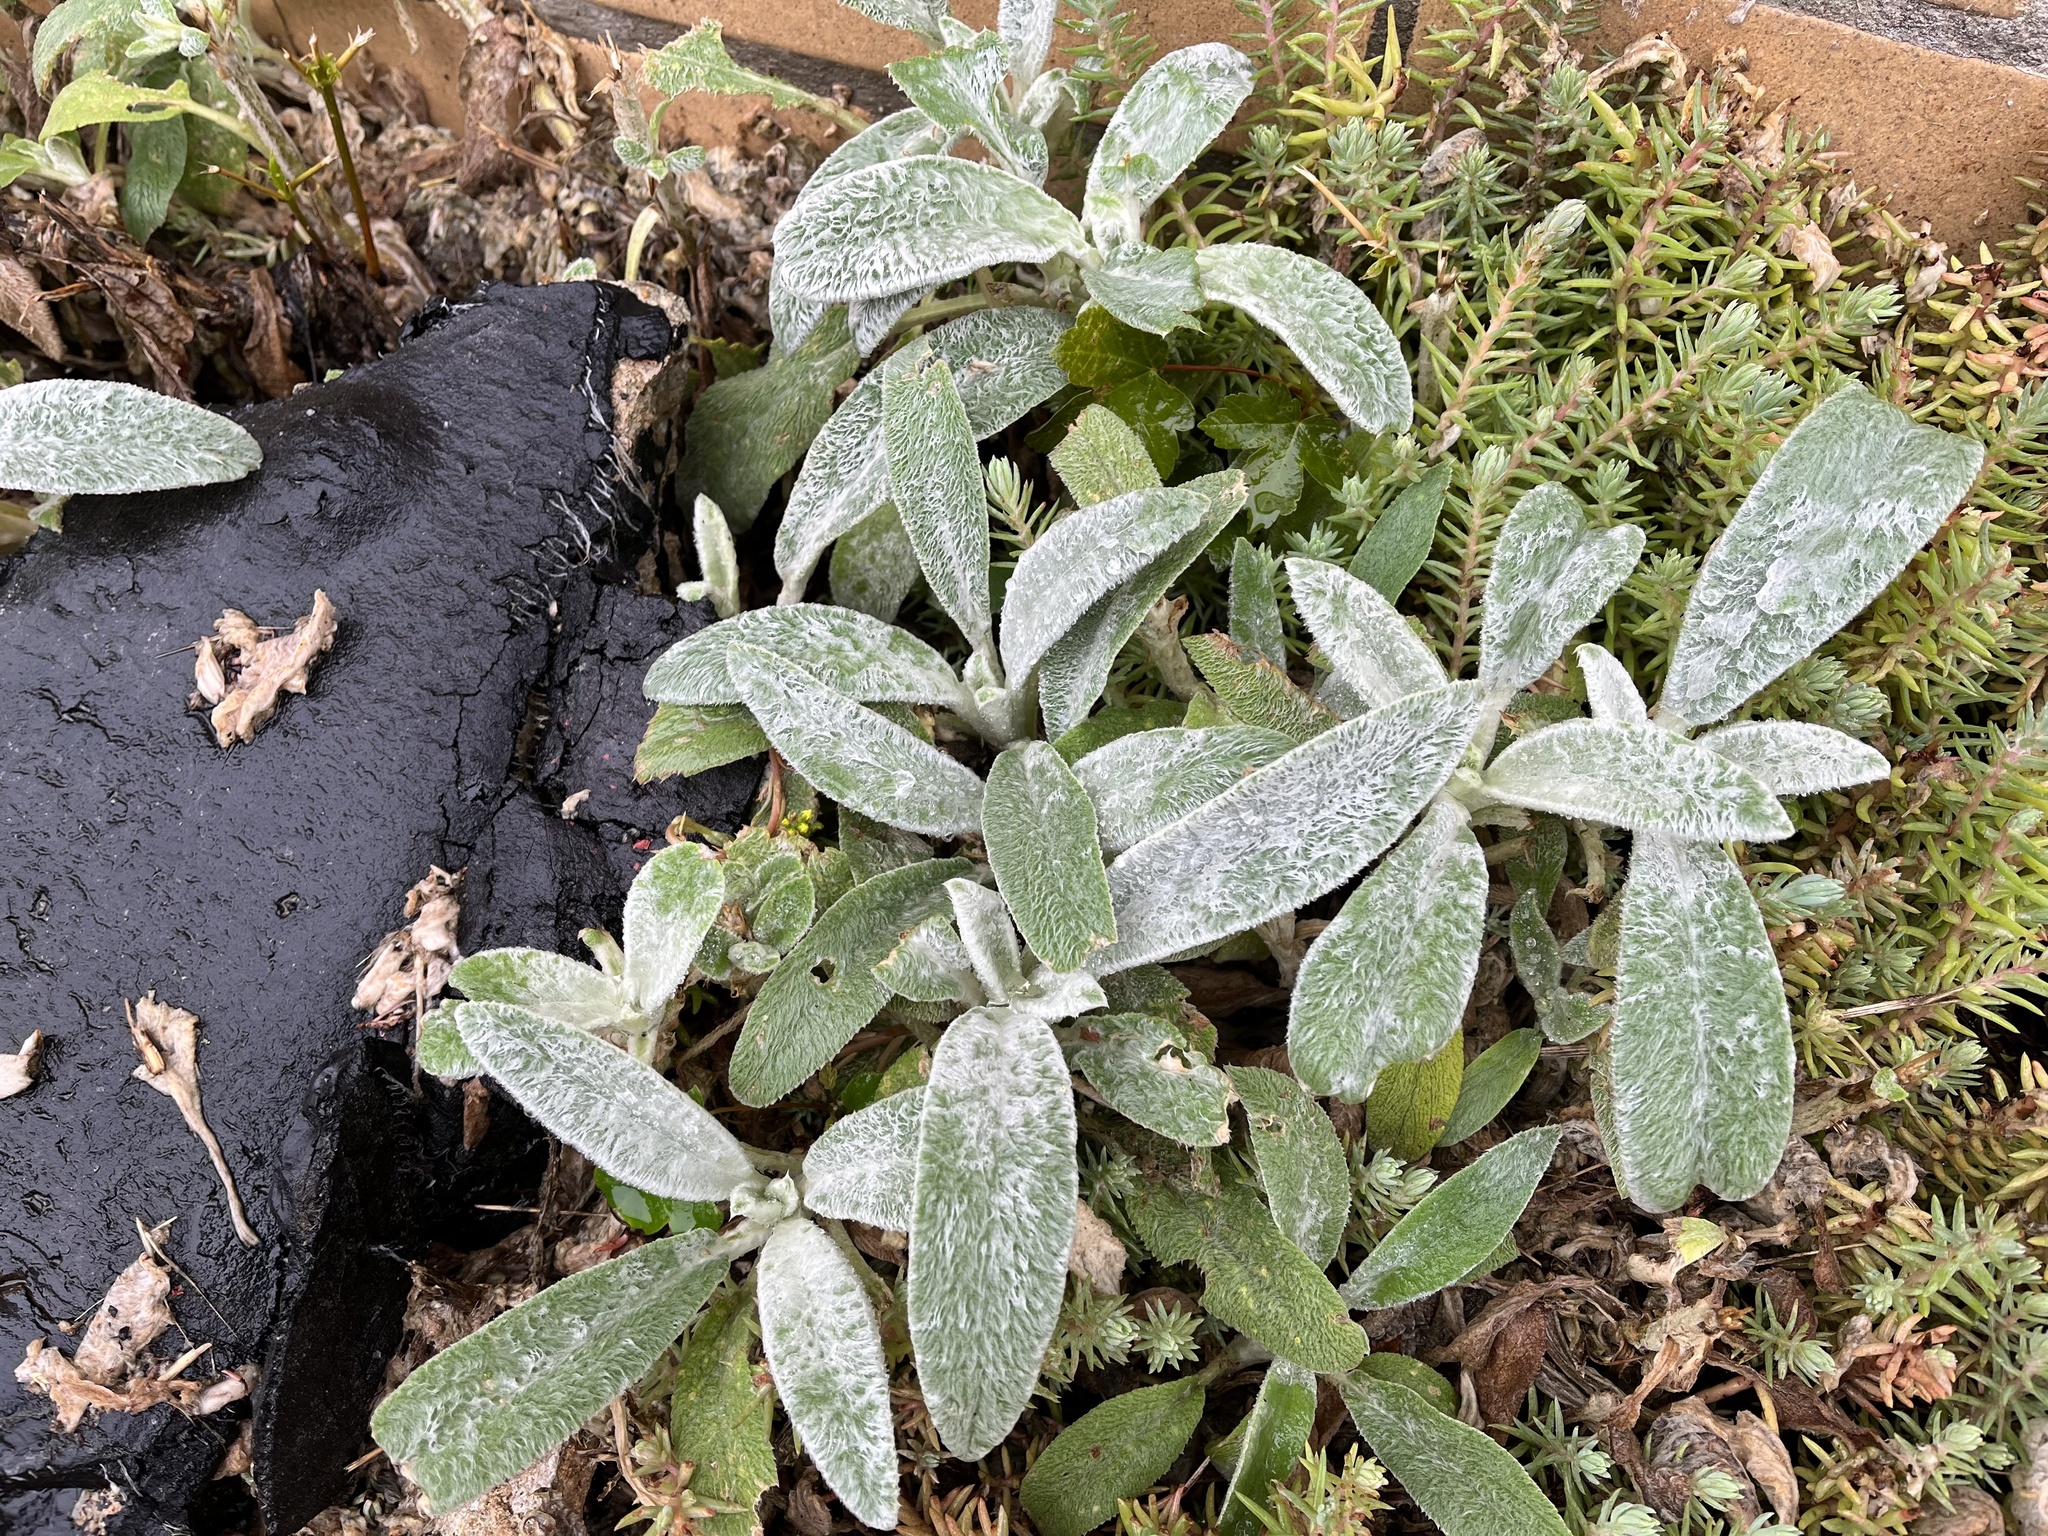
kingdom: Plantae
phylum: Tracheophyta
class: Magnoliopsida
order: Lamiales
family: Lamiaceae
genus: Stachys
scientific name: Stachys byzantina
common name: Lamb's-ear
